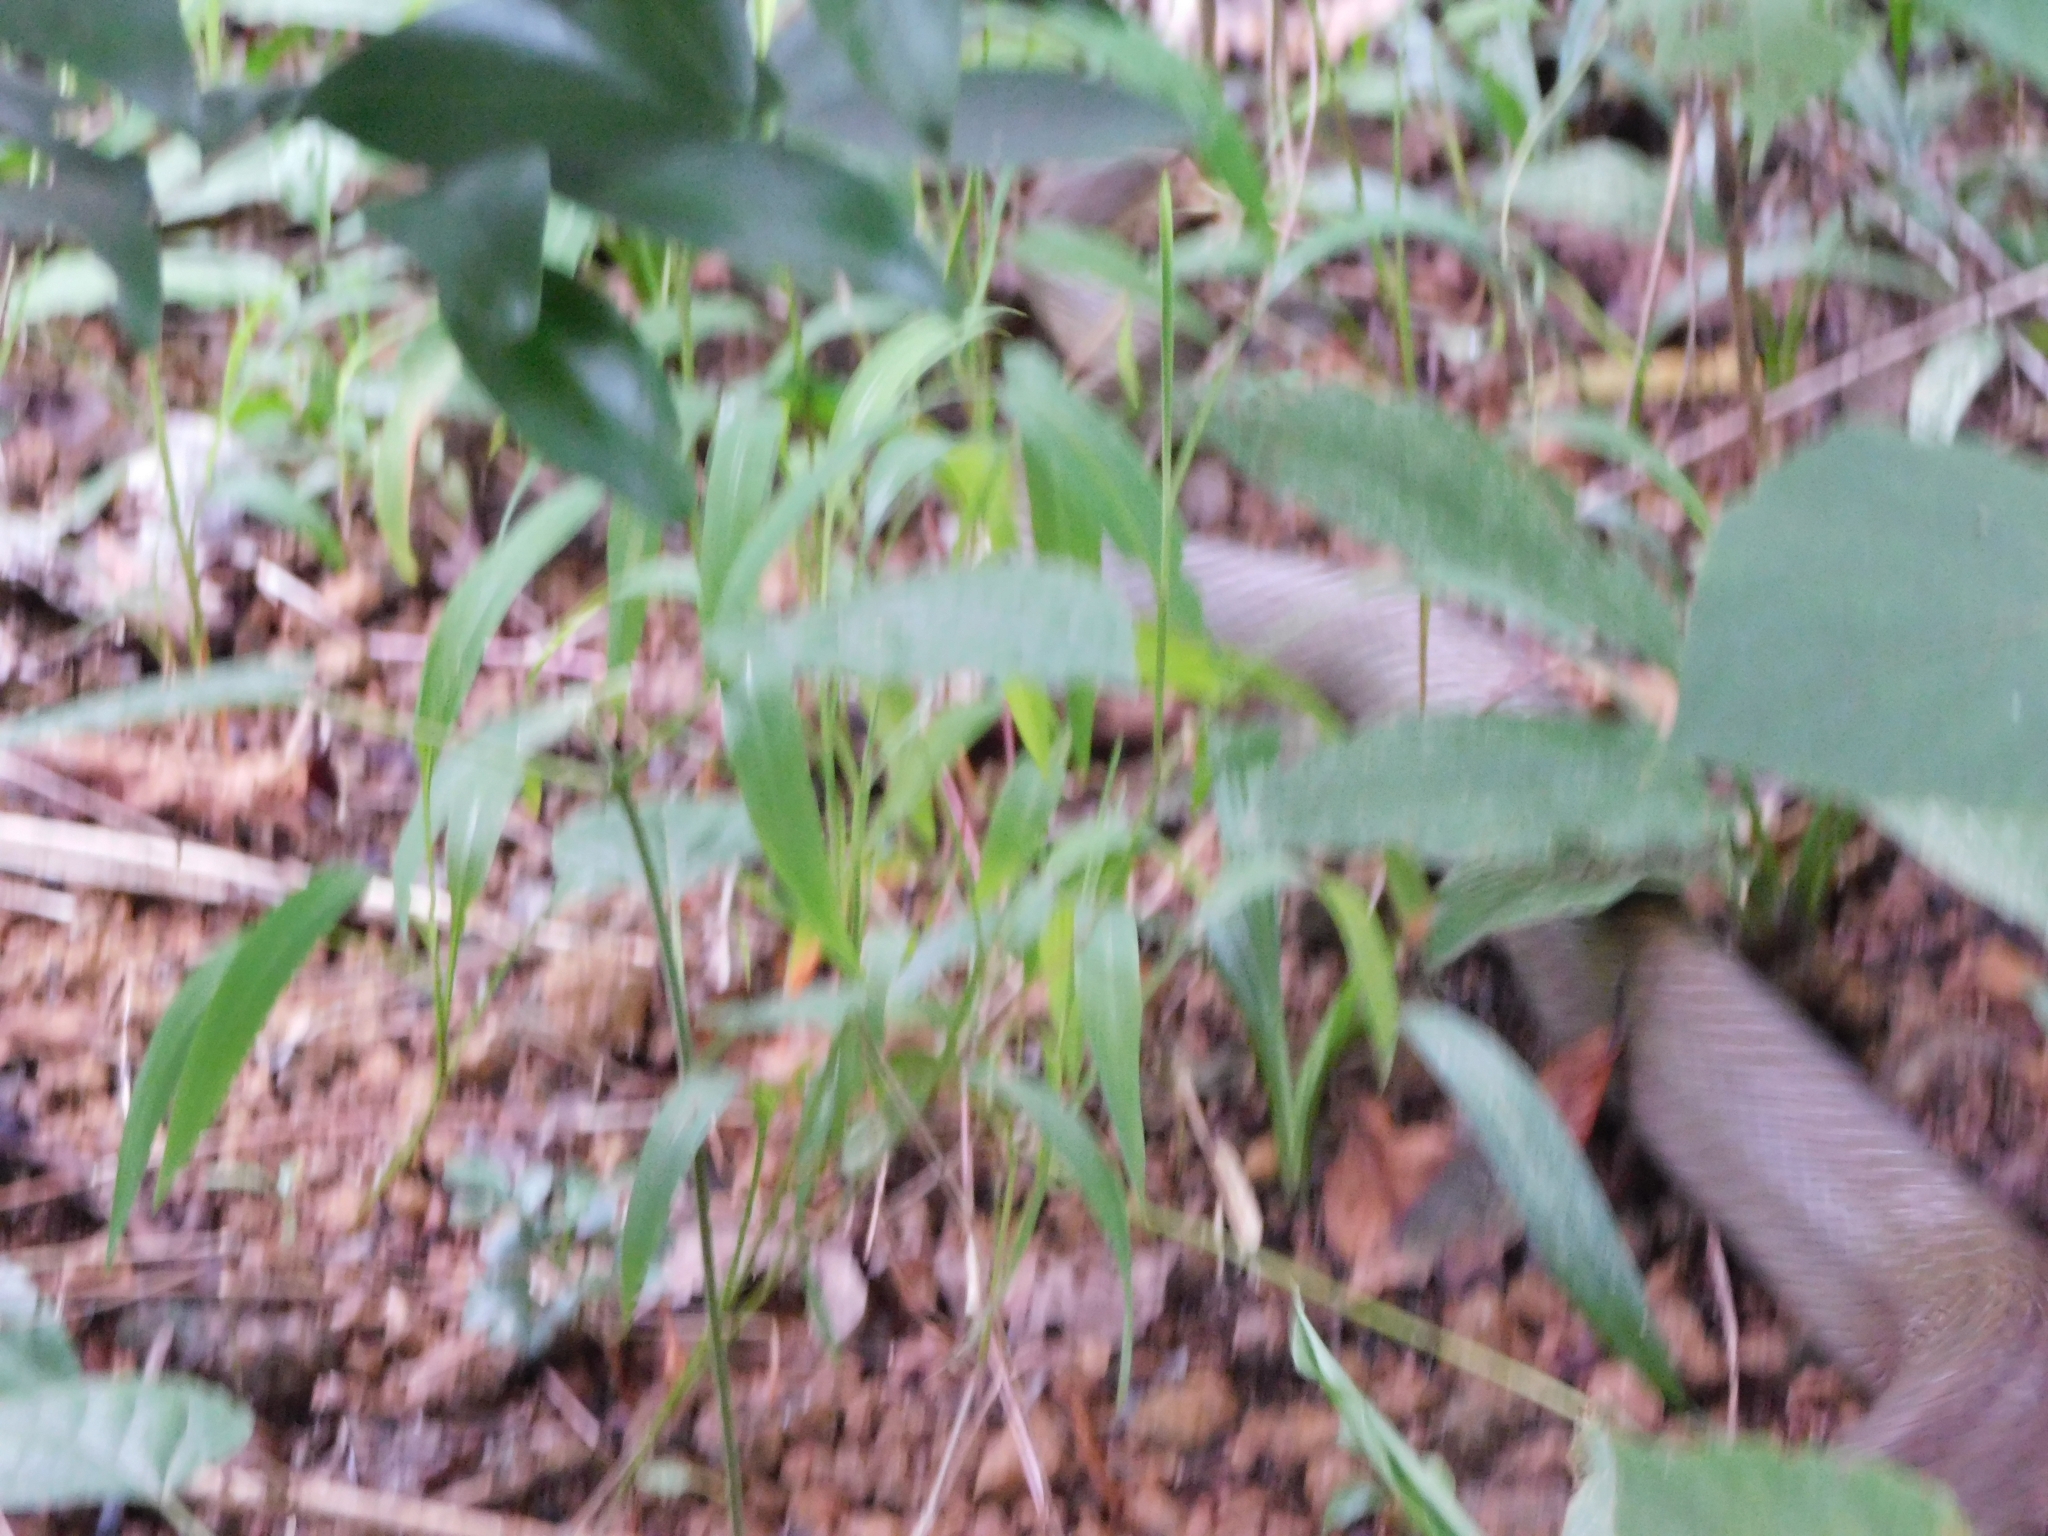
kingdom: Animalia
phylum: Chordata
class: Squamata
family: Colubridae
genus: Ptyas
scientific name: Ptyas mucosa
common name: Oriental ratsnake
